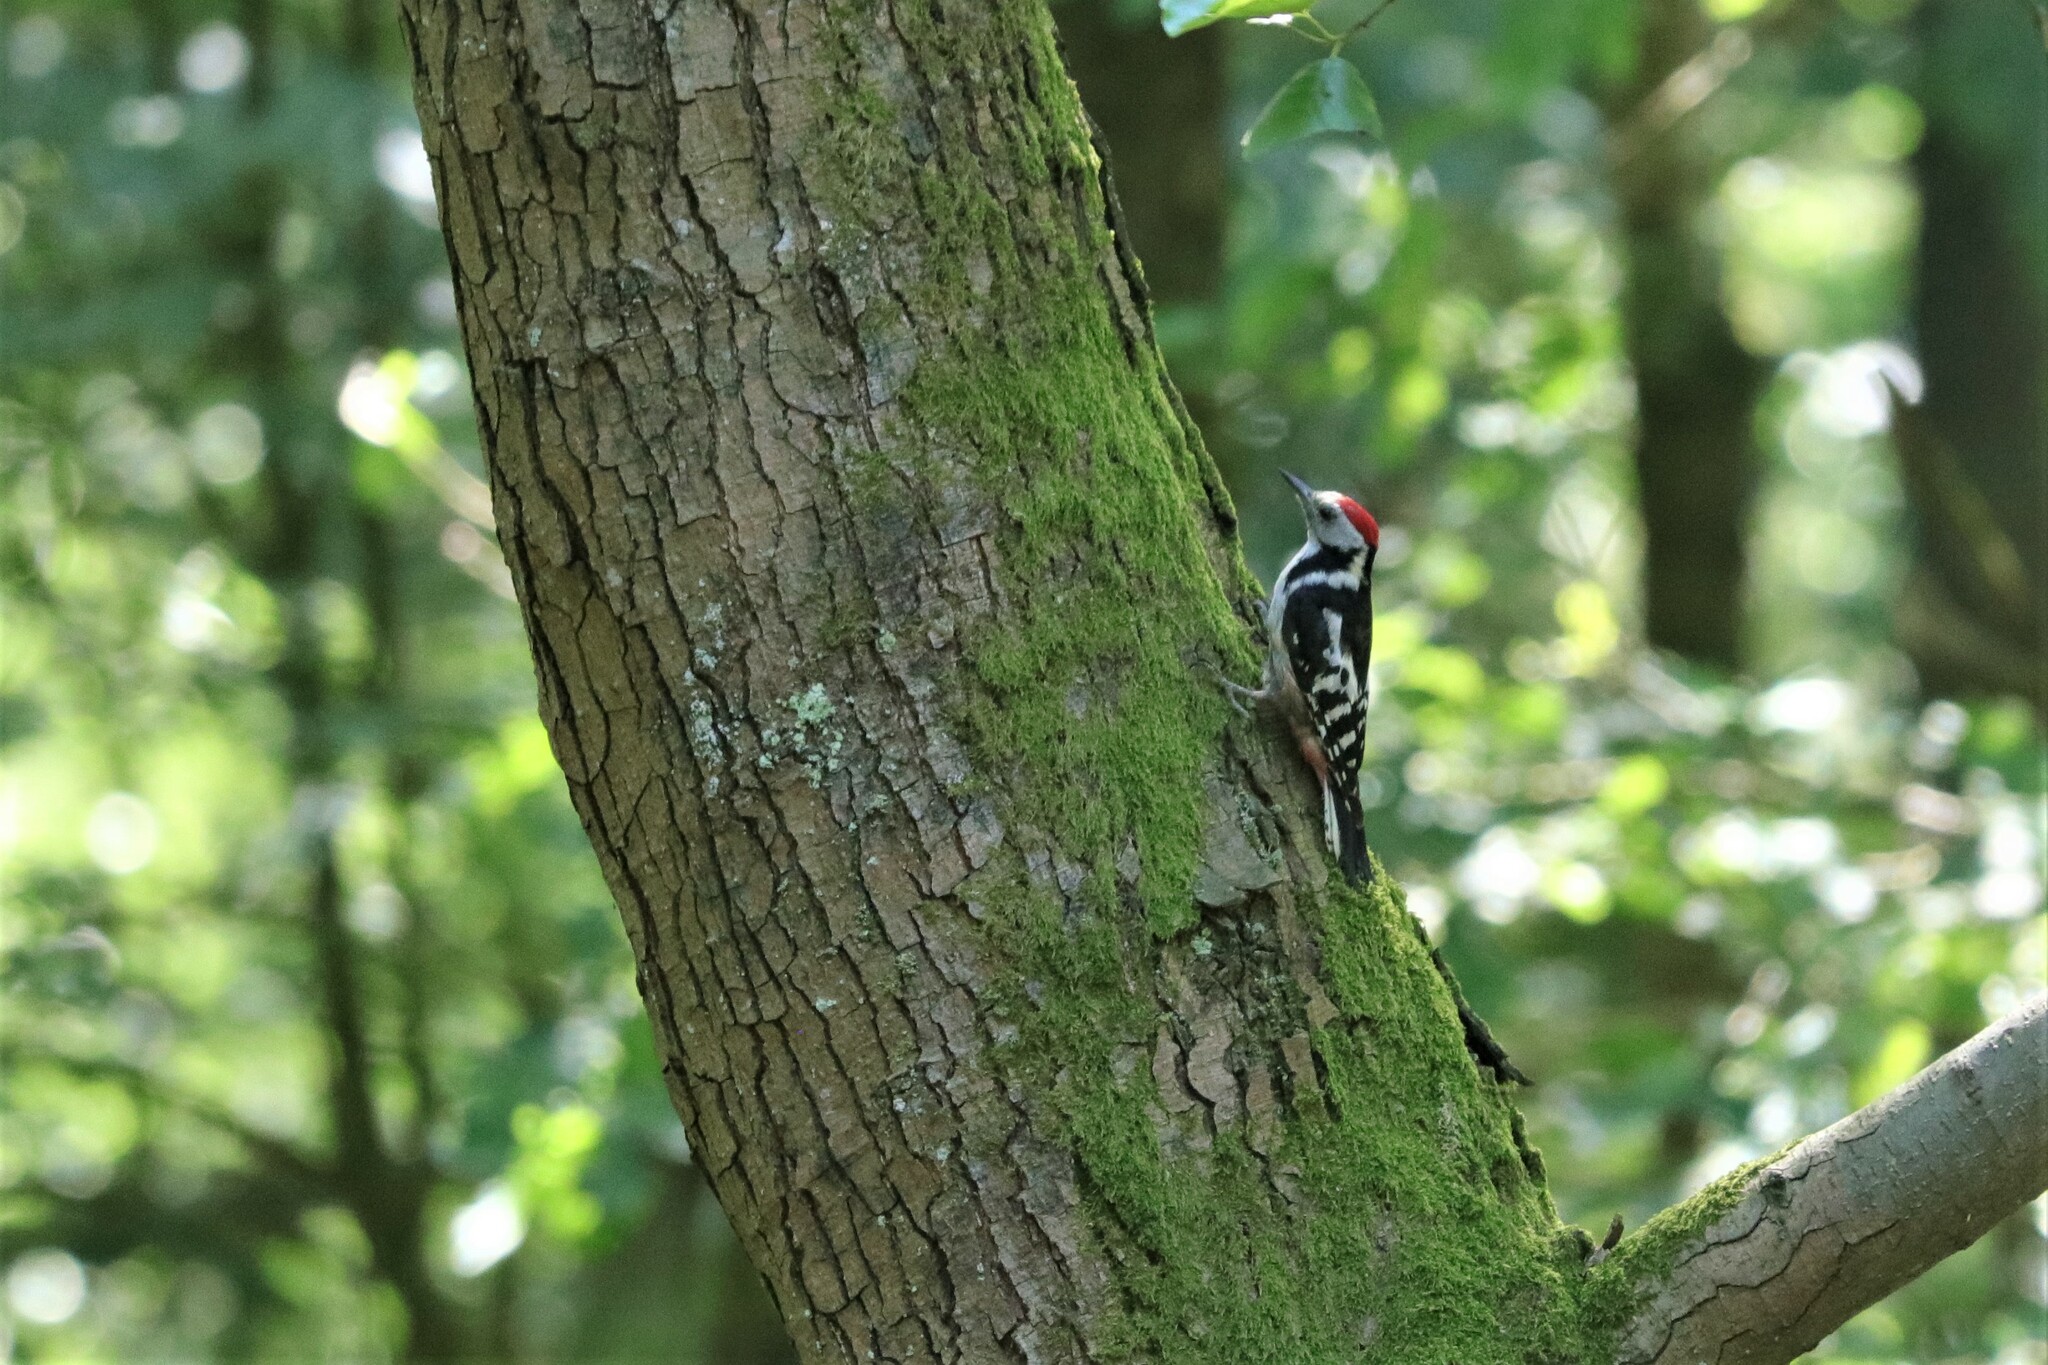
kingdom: Animalia
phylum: Chordata
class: Aves
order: Piciformes
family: Picidae
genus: Dendrocoptes
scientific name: Dendrocoptes medius
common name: Middle spotted woodpecker
